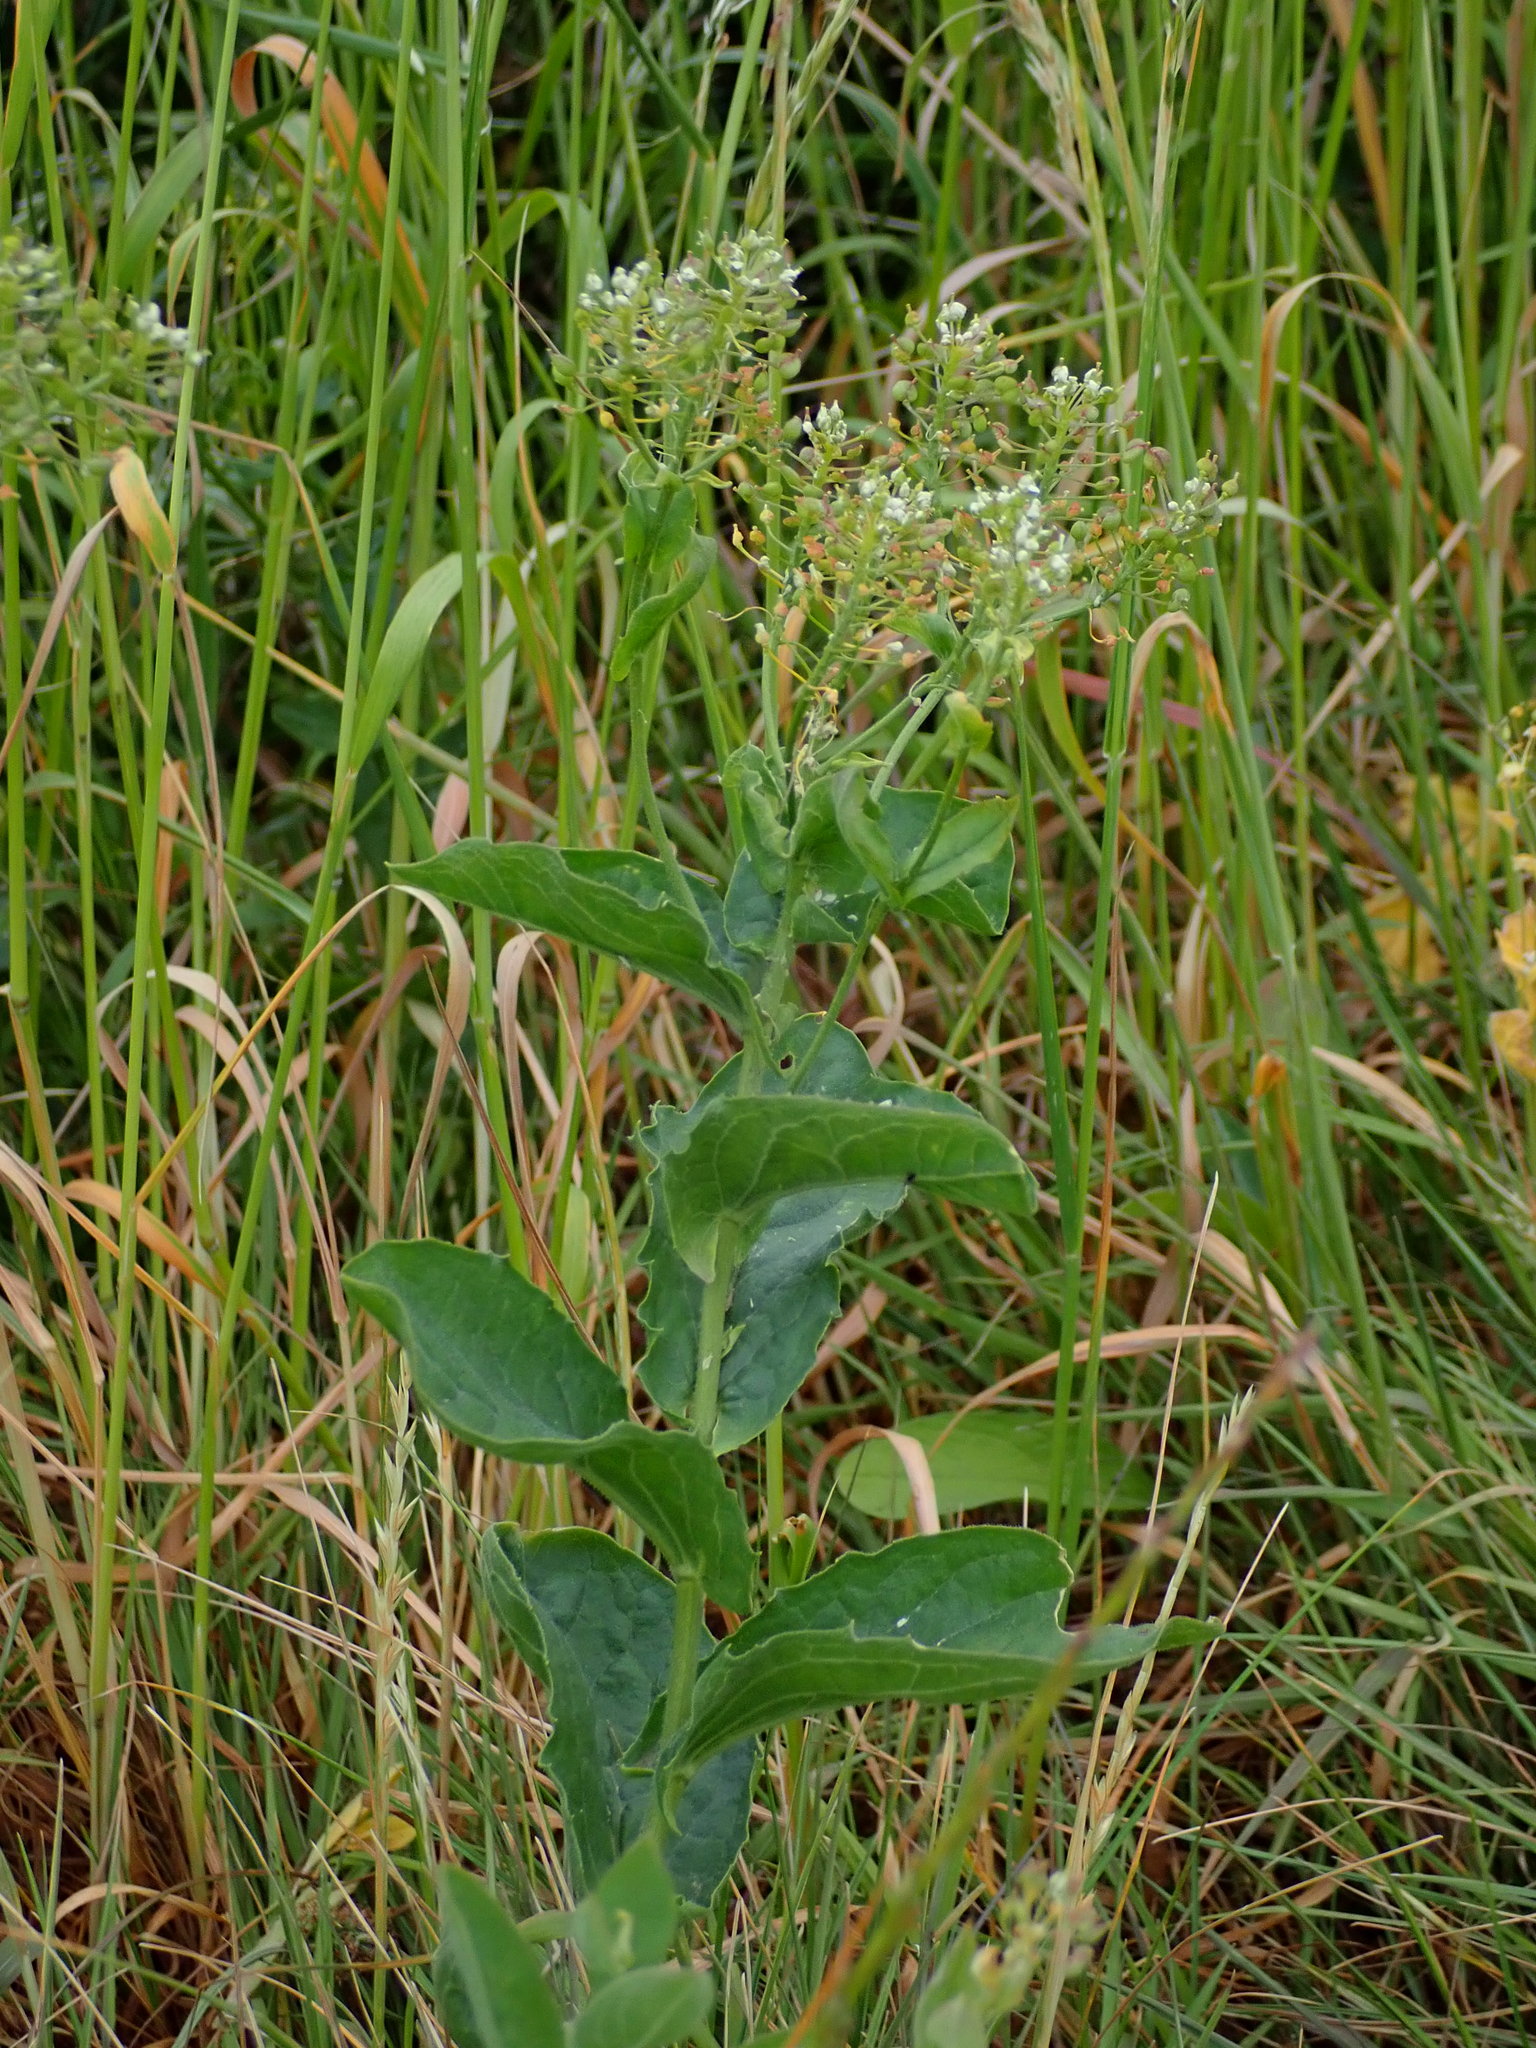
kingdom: Plantae
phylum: Tracheophyta
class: Magnoliopsida
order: Brassicales
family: Brassicaceae
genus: Lepidium
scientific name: Lepidium draba
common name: Hoary cress
